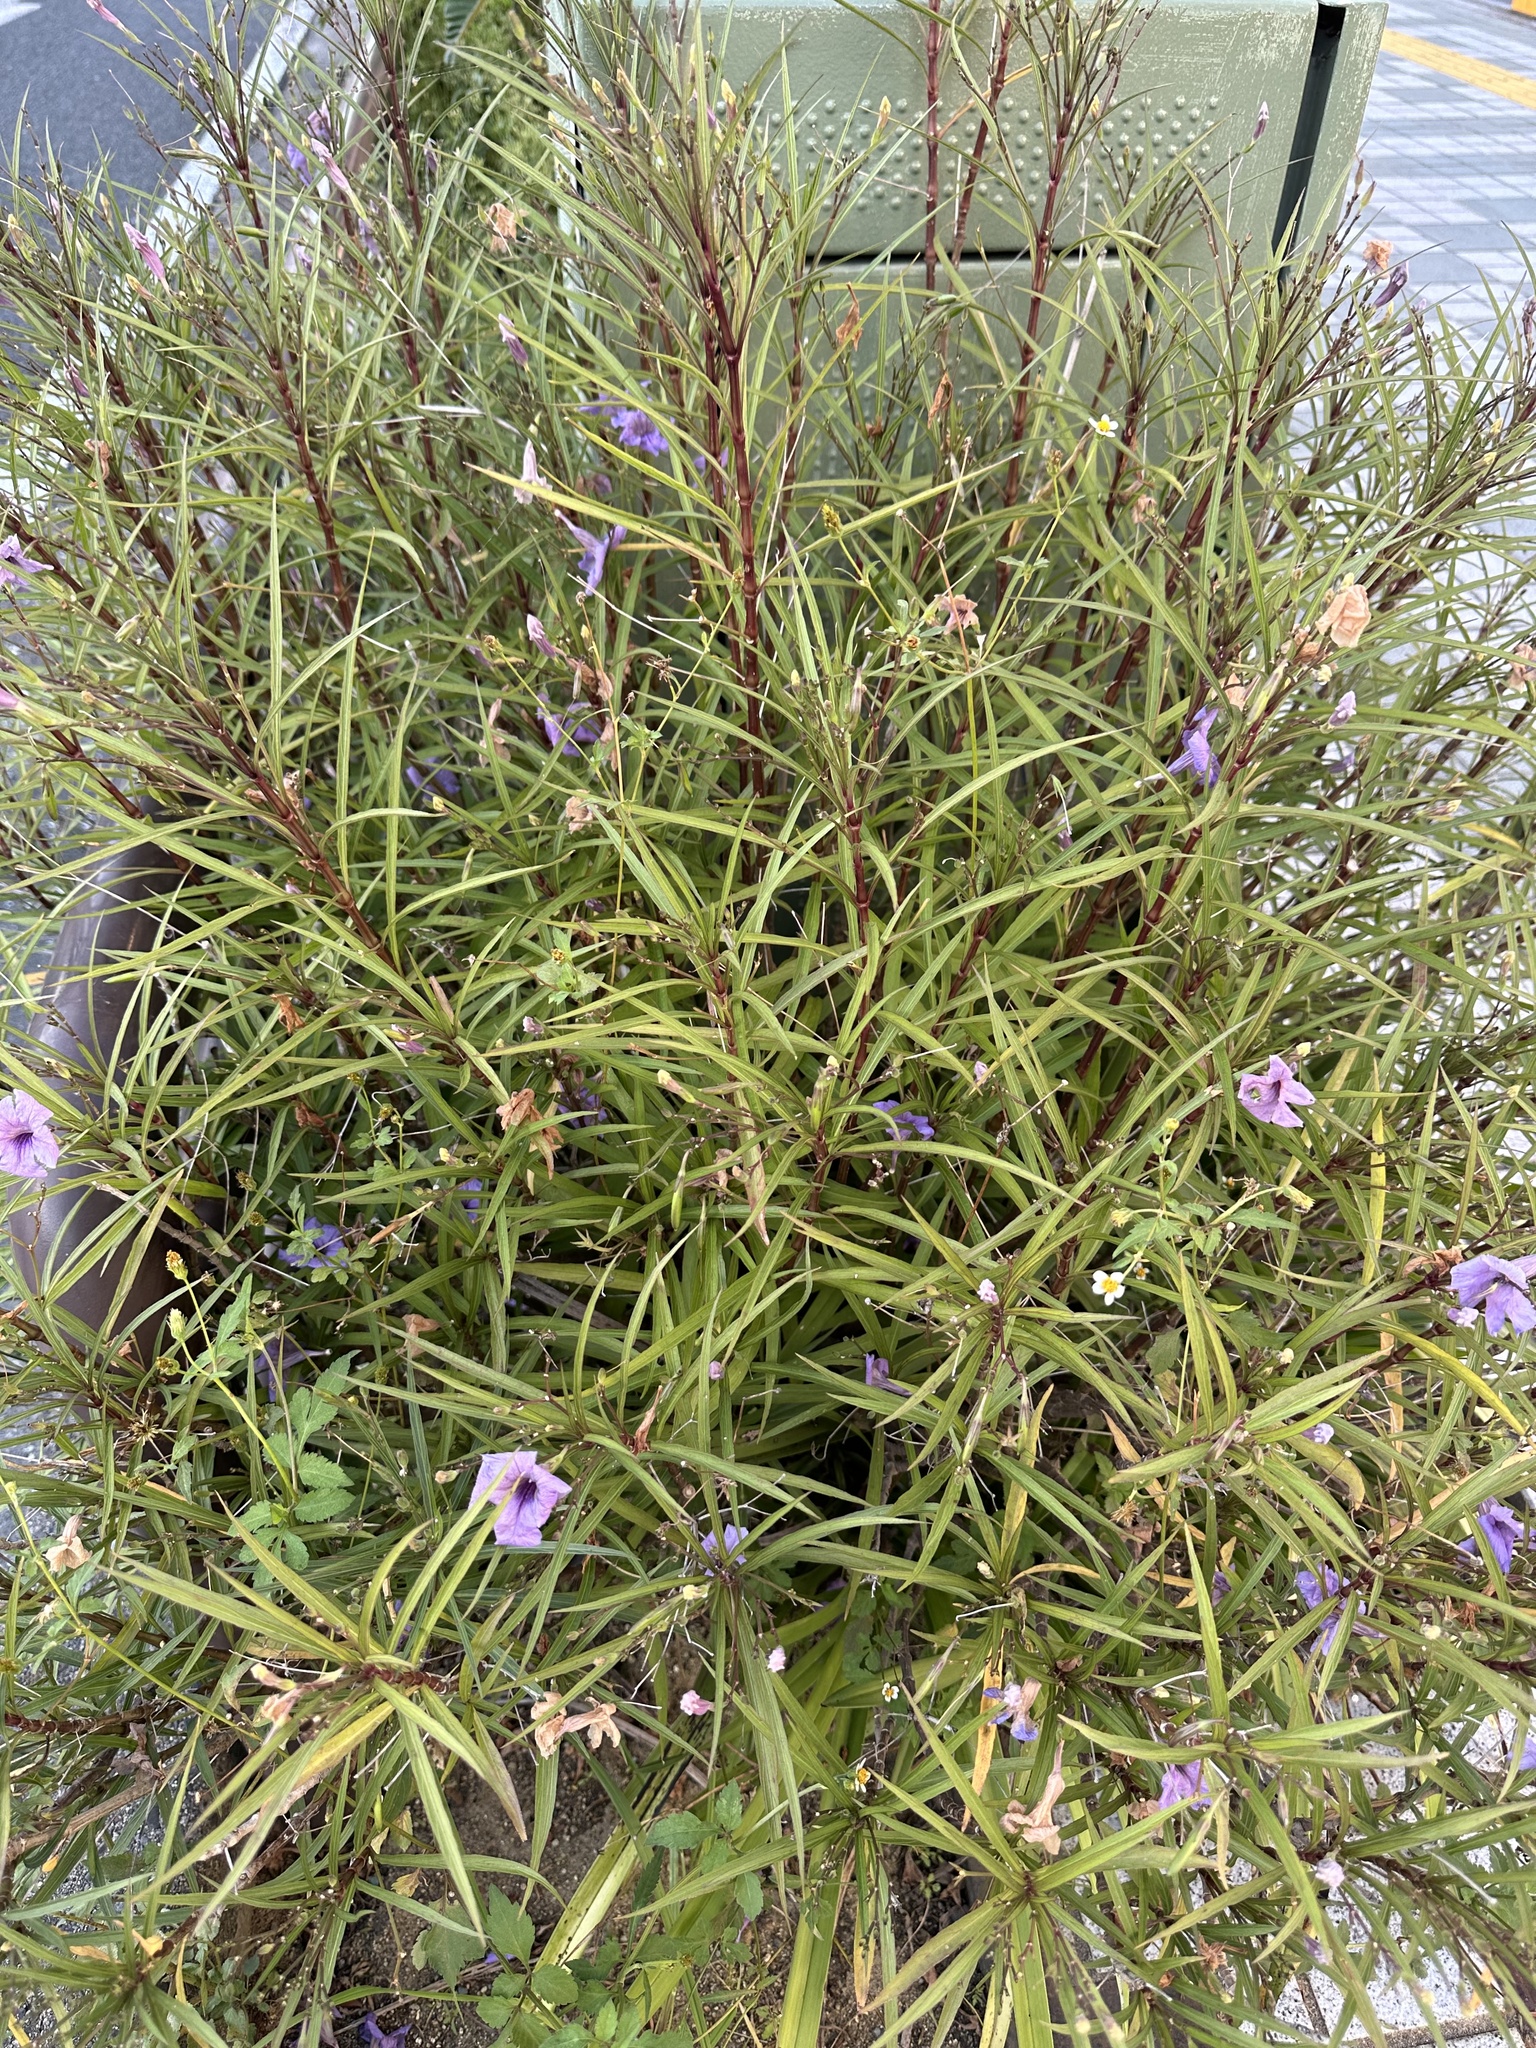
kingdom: Plantae
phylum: Tracheophyta
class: Magnoliopsida
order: Lamiales
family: Acanthaceae
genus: Ruellia
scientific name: Ruellia simplex
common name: Softseed wild petunia
